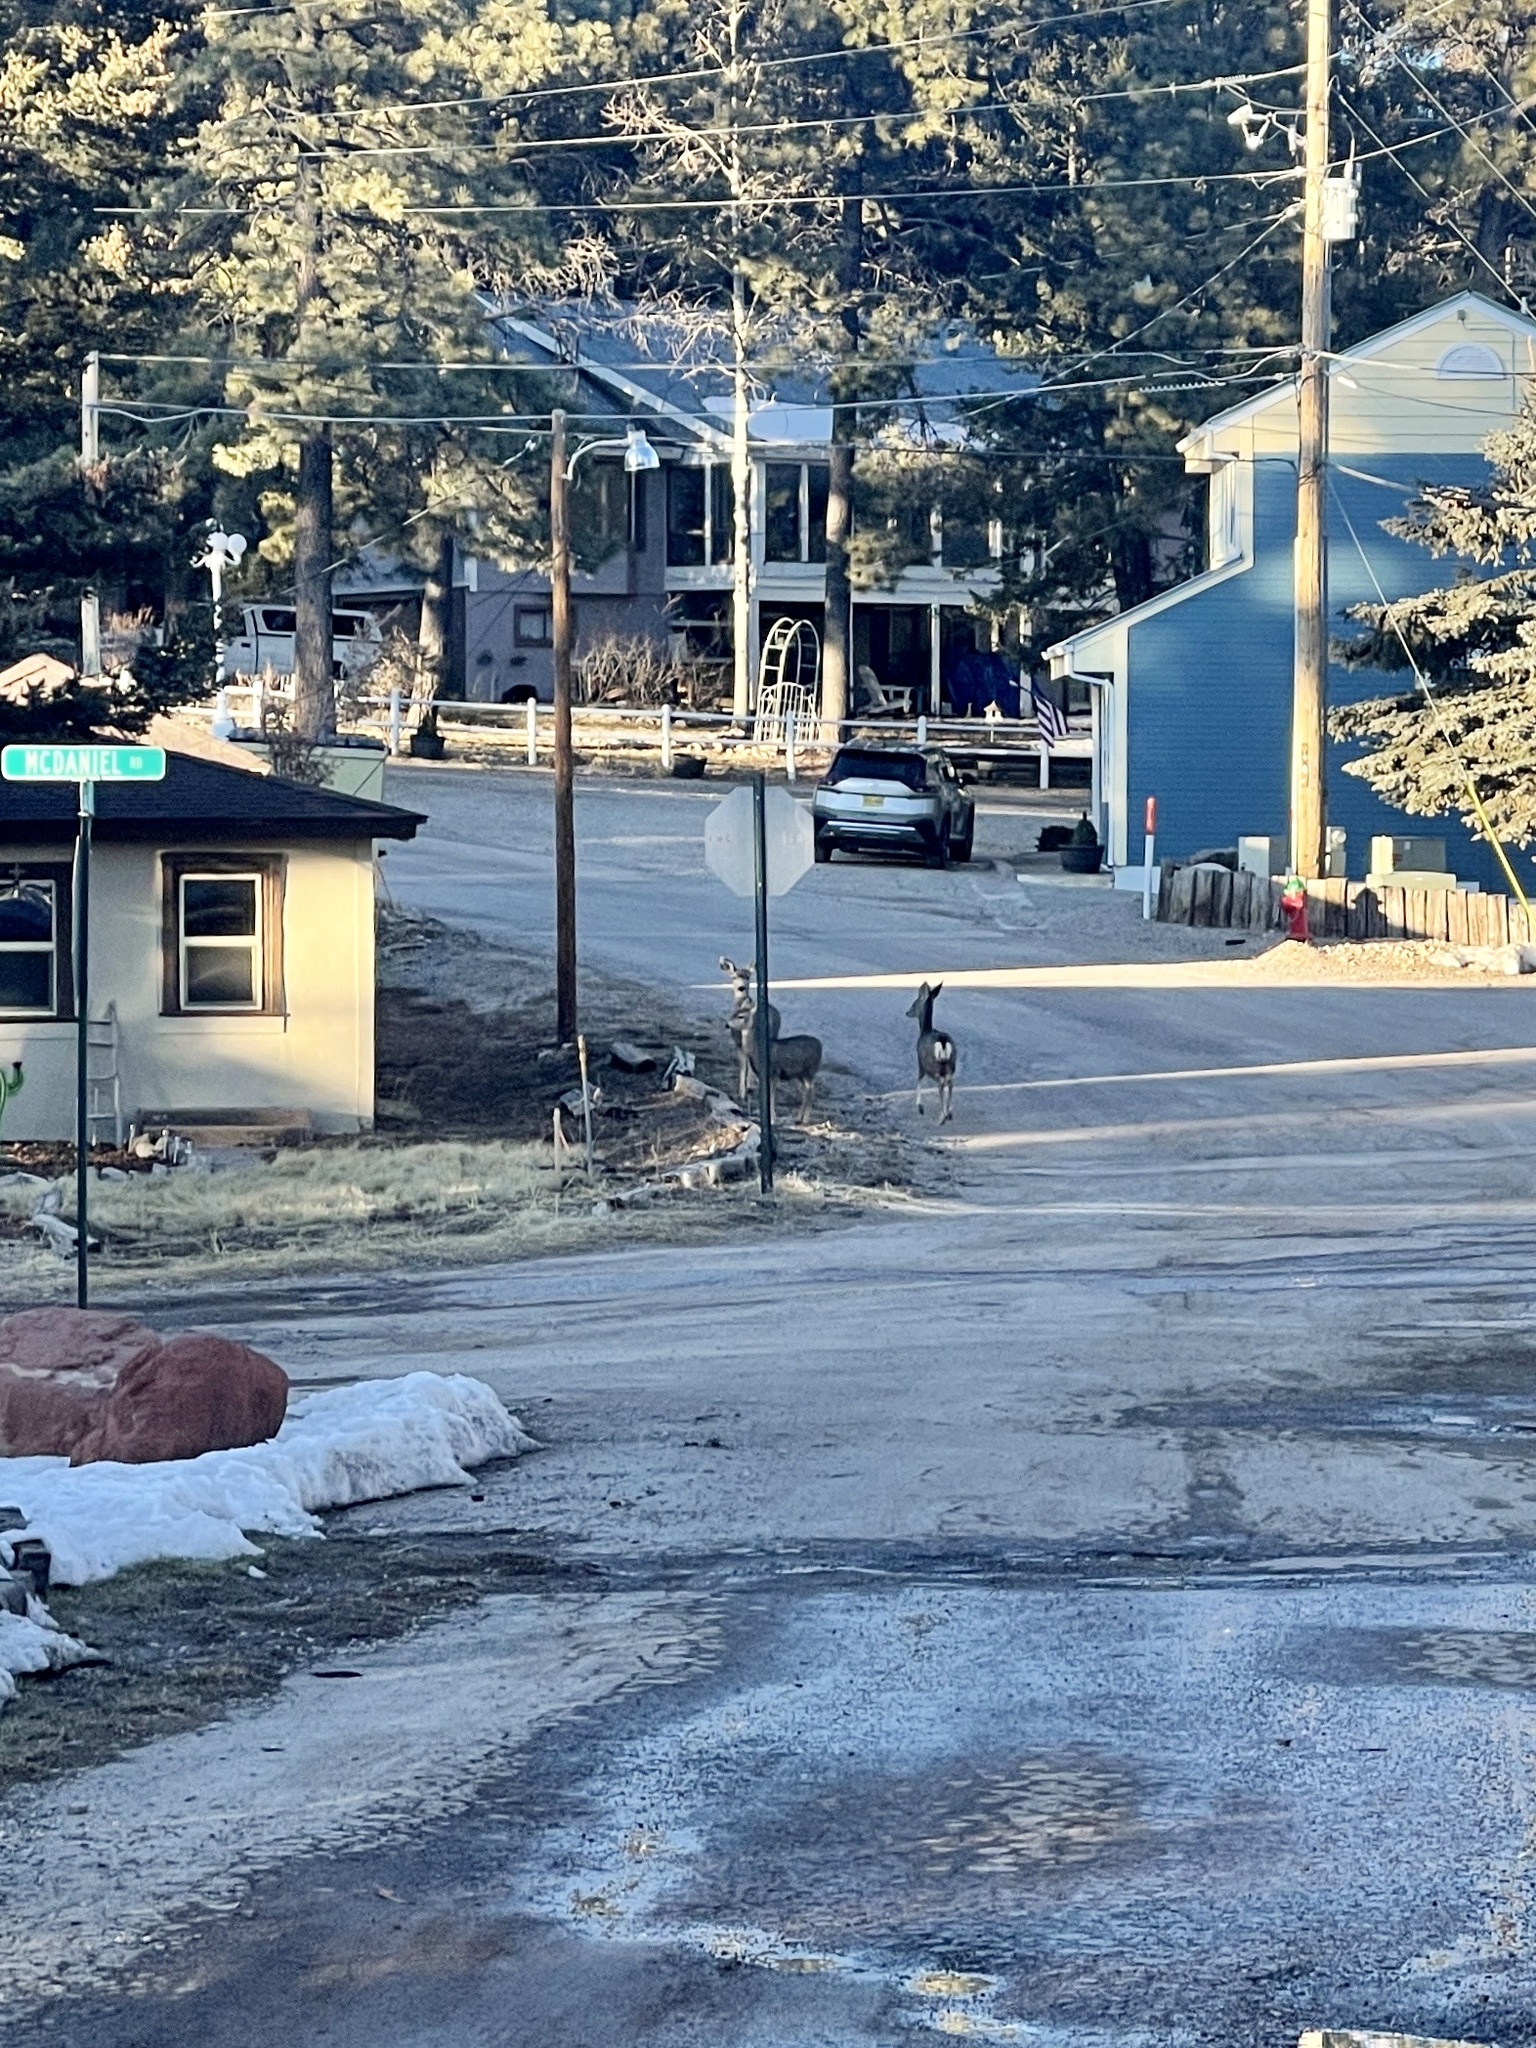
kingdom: Animalia
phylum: Chordata
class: Mammalia
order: Artiodactyla
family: Cervidae
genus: Odocoileus
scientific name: Odocoileus hemionus
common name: Mule deer
